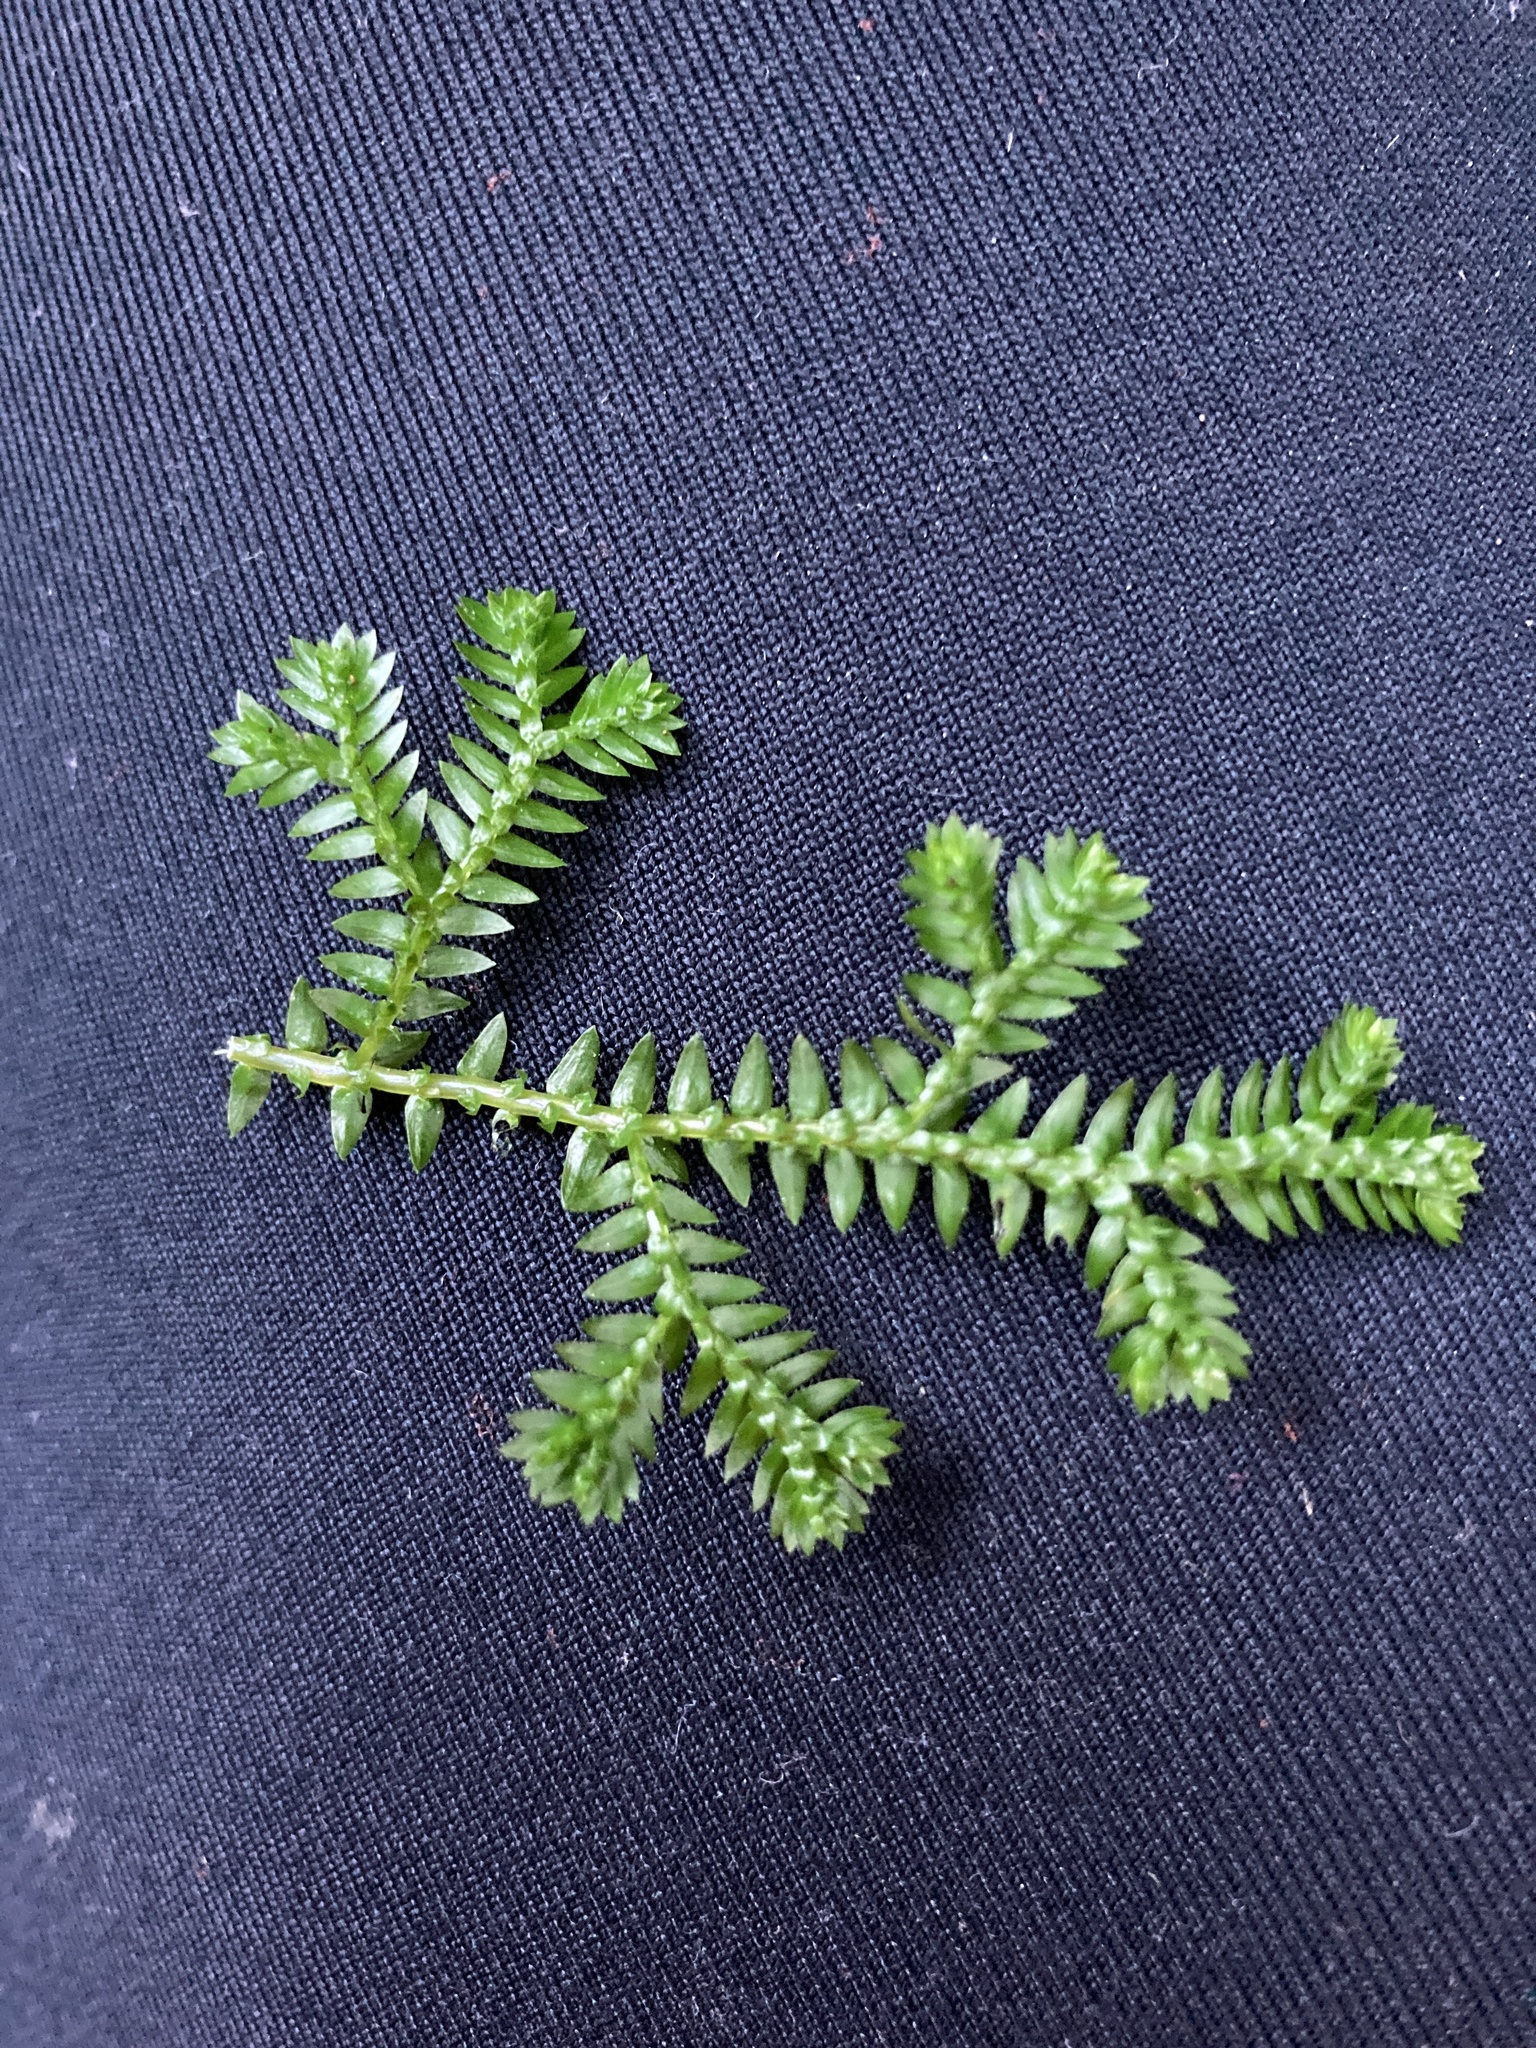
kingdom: Plantae
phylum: Tracheophyta
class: Lycopodiopsida
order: Selaginellales
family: Selaginellaceae
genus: Selaginella
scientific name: Selaginella kraussiana
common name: Krauss' spikemoss
